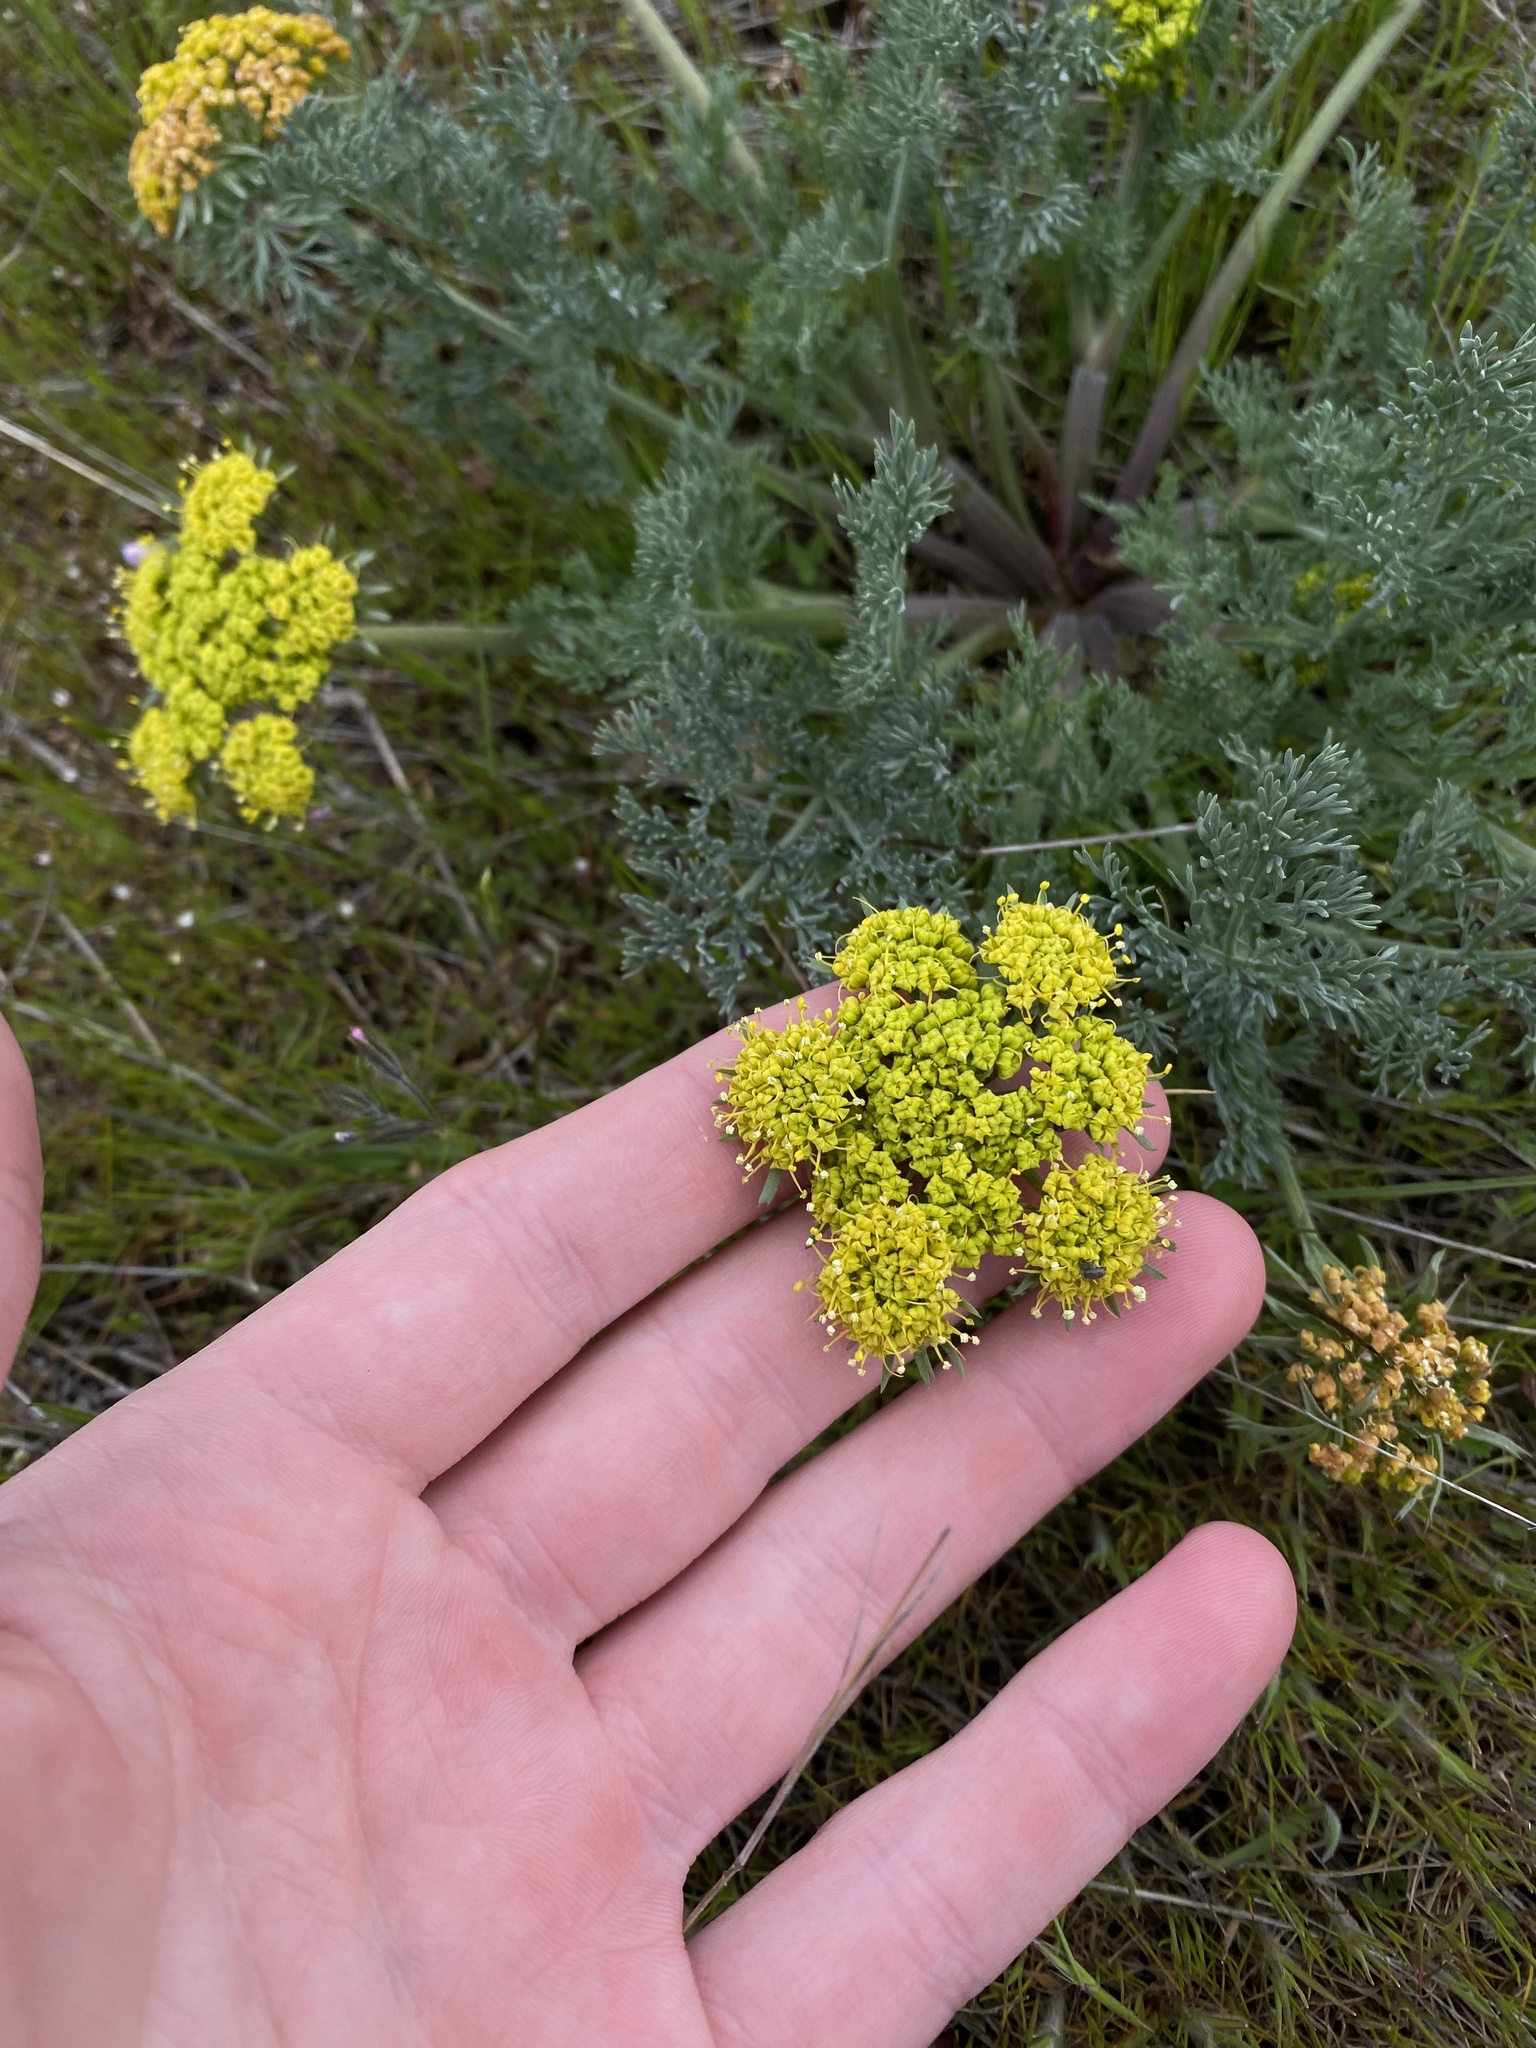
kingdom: Plantae
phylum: Tracheophyta
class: Magnoliopsida
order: Apiales
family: Apiaceae
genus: Lomatium
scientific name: Lomatium macrocarpum
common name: Big-seed biscuitroot
